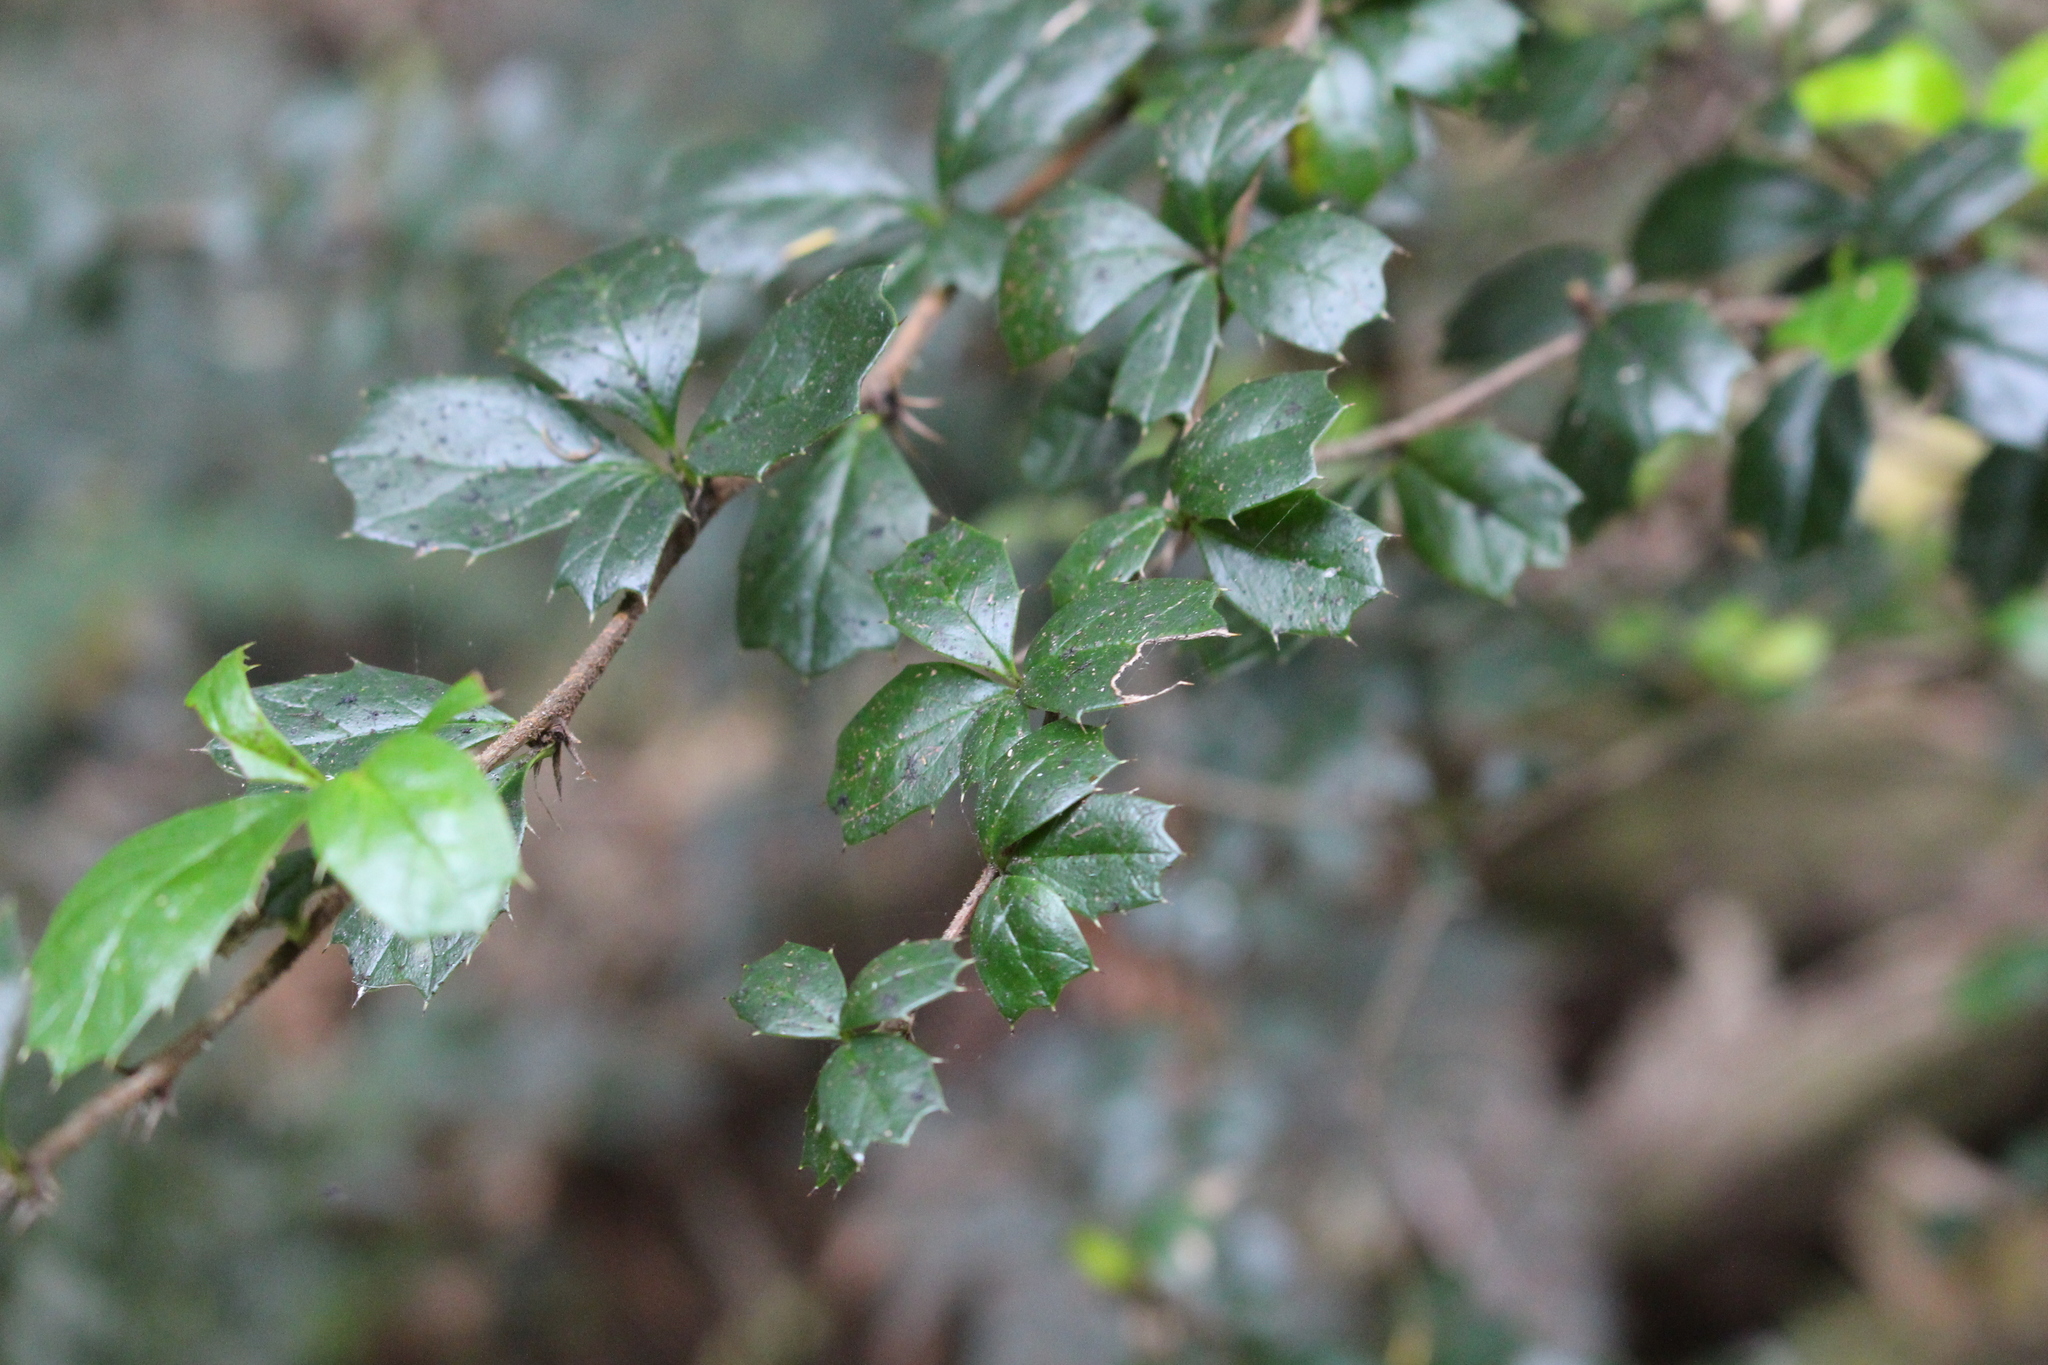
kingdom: Plantae
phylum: Tracheophyta
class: Magnoliopsida
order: Ranunculales
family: Berberidaceae
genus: Berberis
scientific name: Berberis darwinii
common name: Darwin's barberry
